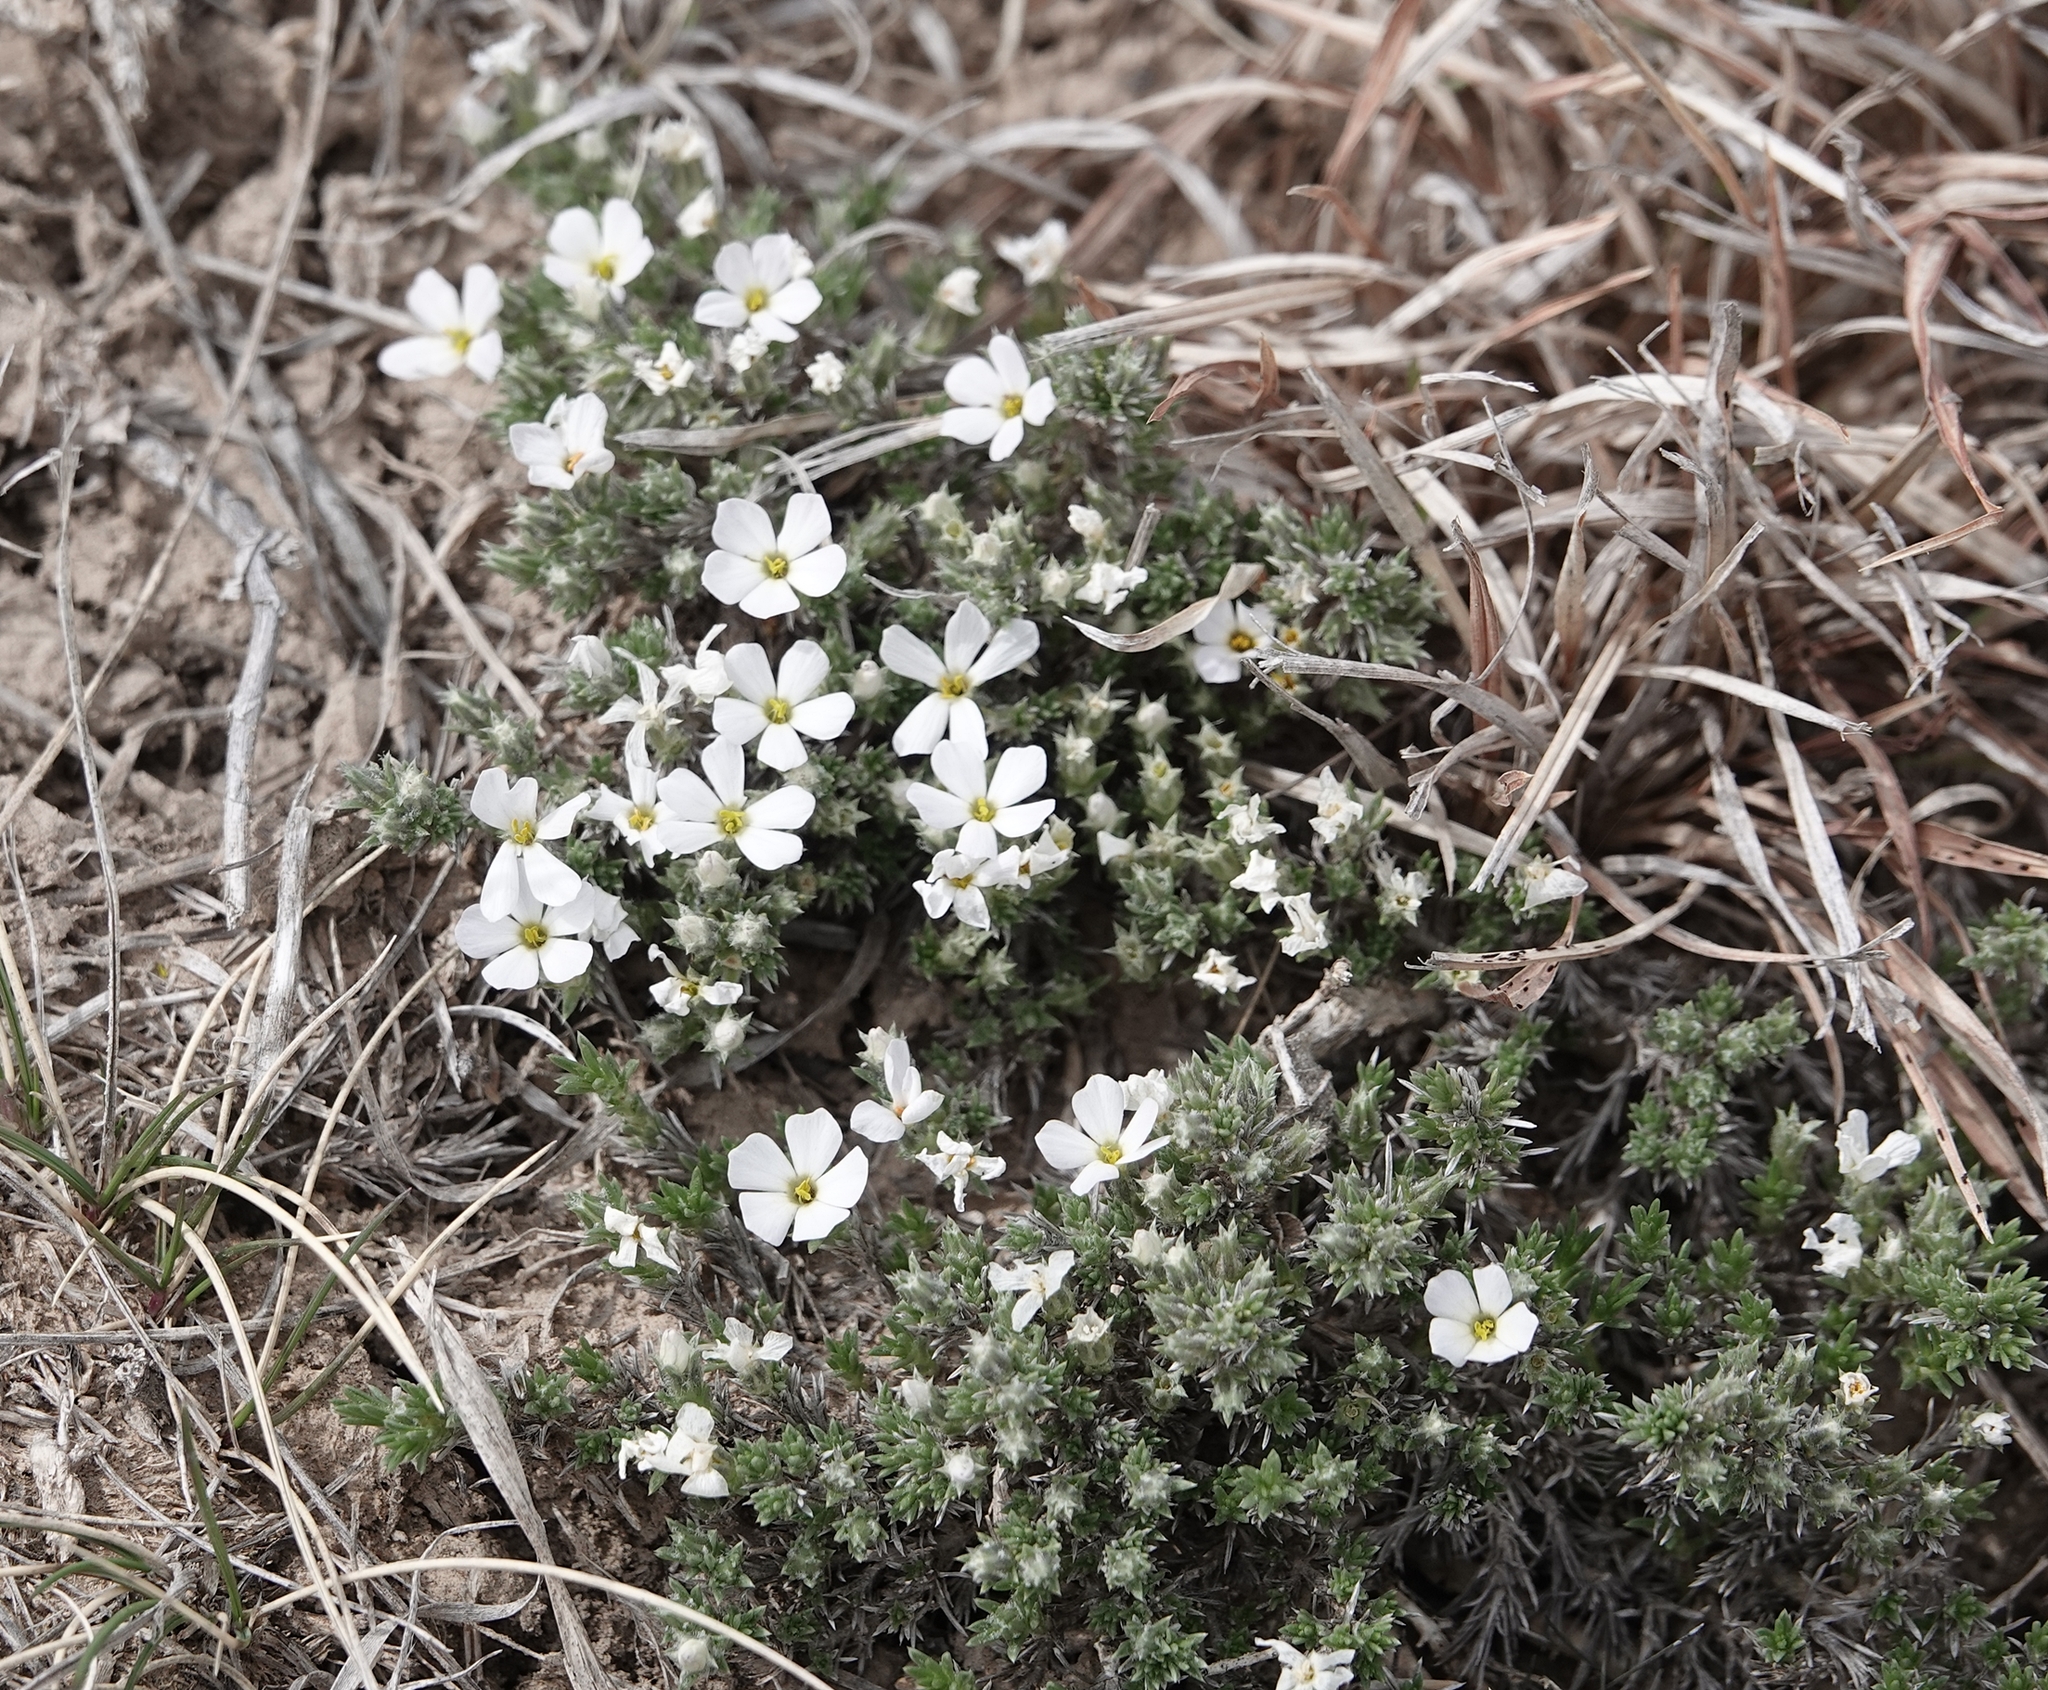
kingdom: Plantae
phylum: Tracheophyta
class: Magnoliopsida
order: Ericales
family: Polemoniaceae
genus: Phlox
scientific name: Phlox hoodii
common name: Moss phlox
